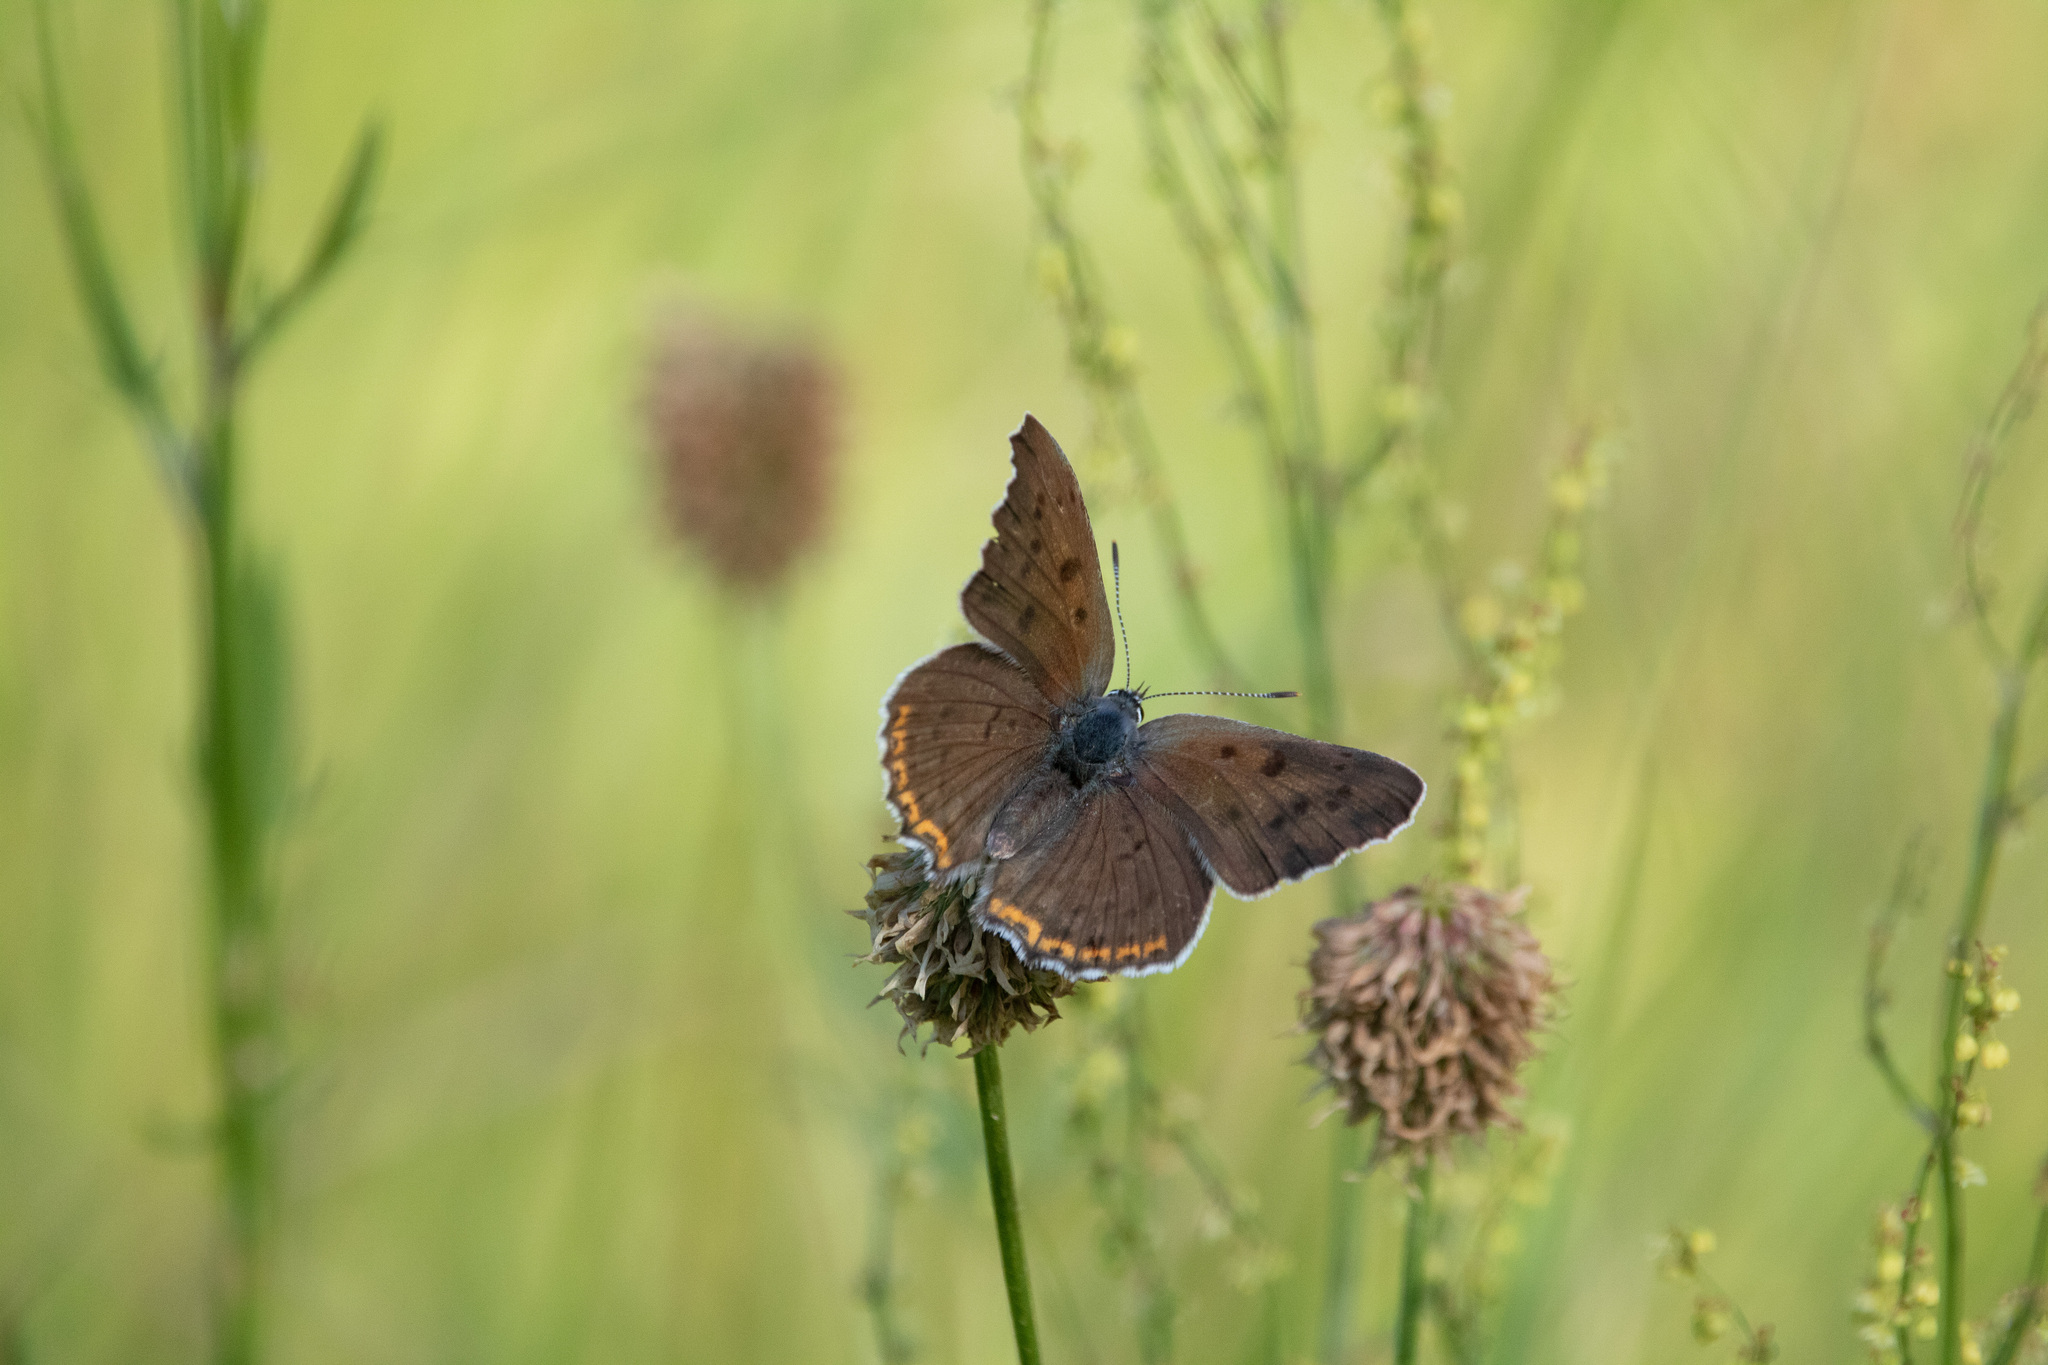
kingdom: Animalia
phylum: Arthropoda
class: Insecta
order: Lepidoptera
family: Lycaenidae
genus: Lycaena
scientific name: Lycaena alciphron
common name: Purple-shot copper
